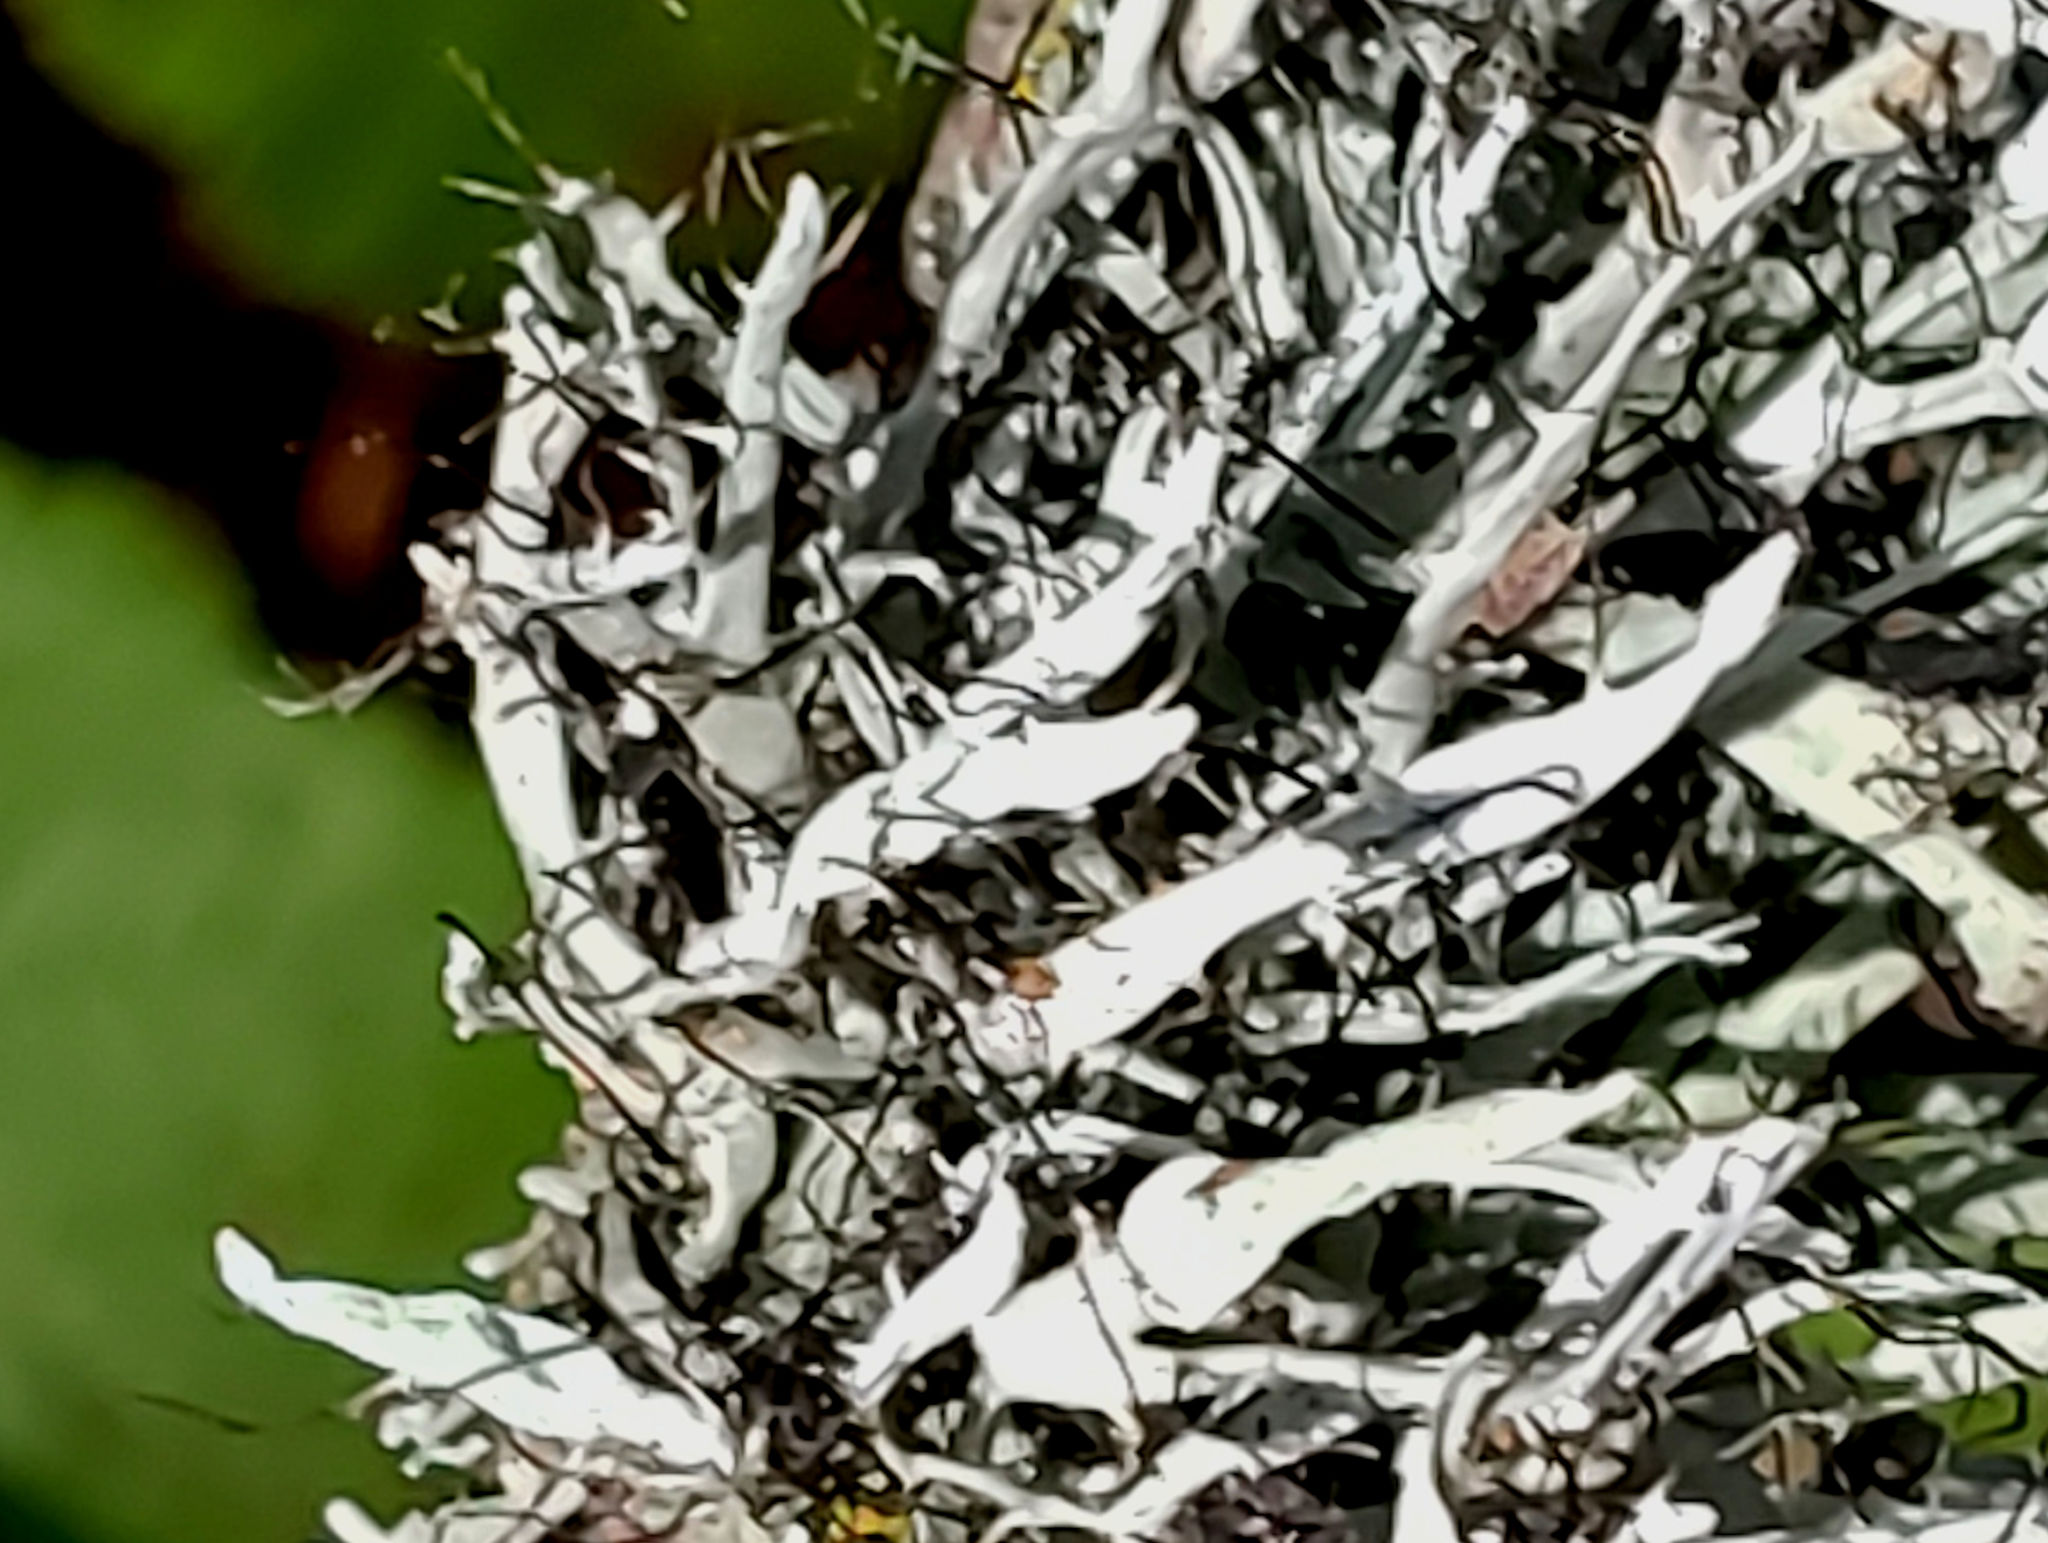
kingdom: Fungi
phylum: Ascomycota
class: Lecanoromycetes
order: Caliciales
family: Physciaceae
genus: Leucodermia
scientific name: Leucodermia leucomelos
